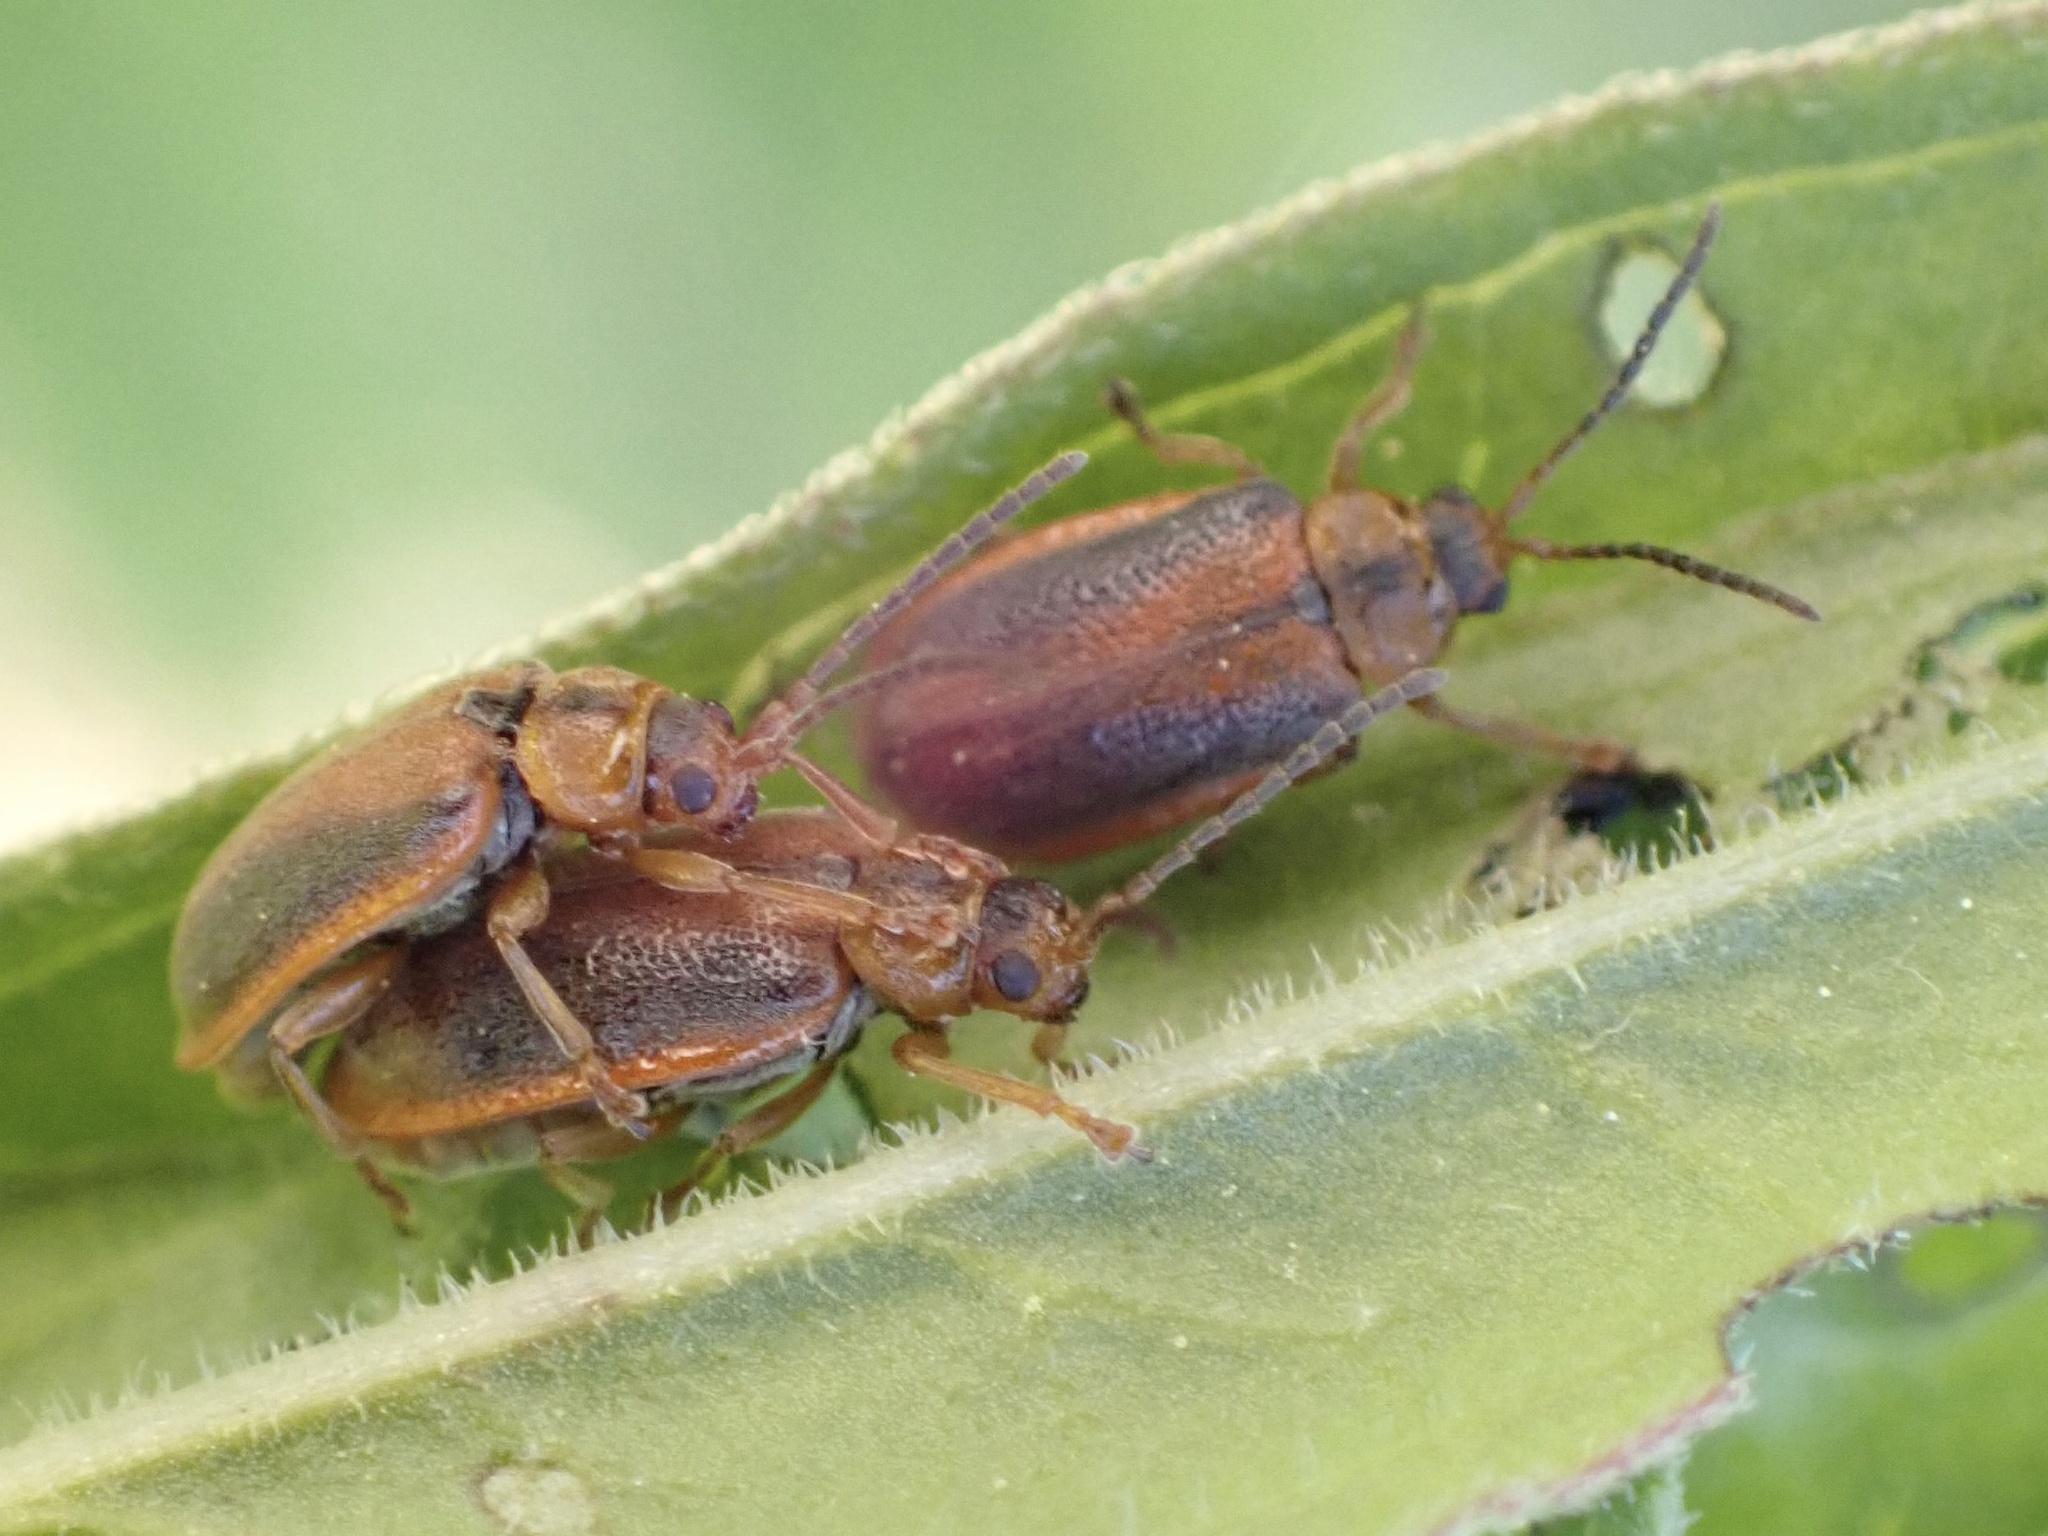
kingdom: Animalia
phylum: Arthropoda
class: Insecta
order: Coleoptera
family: Chrysomelidae
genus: Neogalerucella
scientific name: Neogalerucella calmariensis
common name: Black-margined loosestrife beetle
